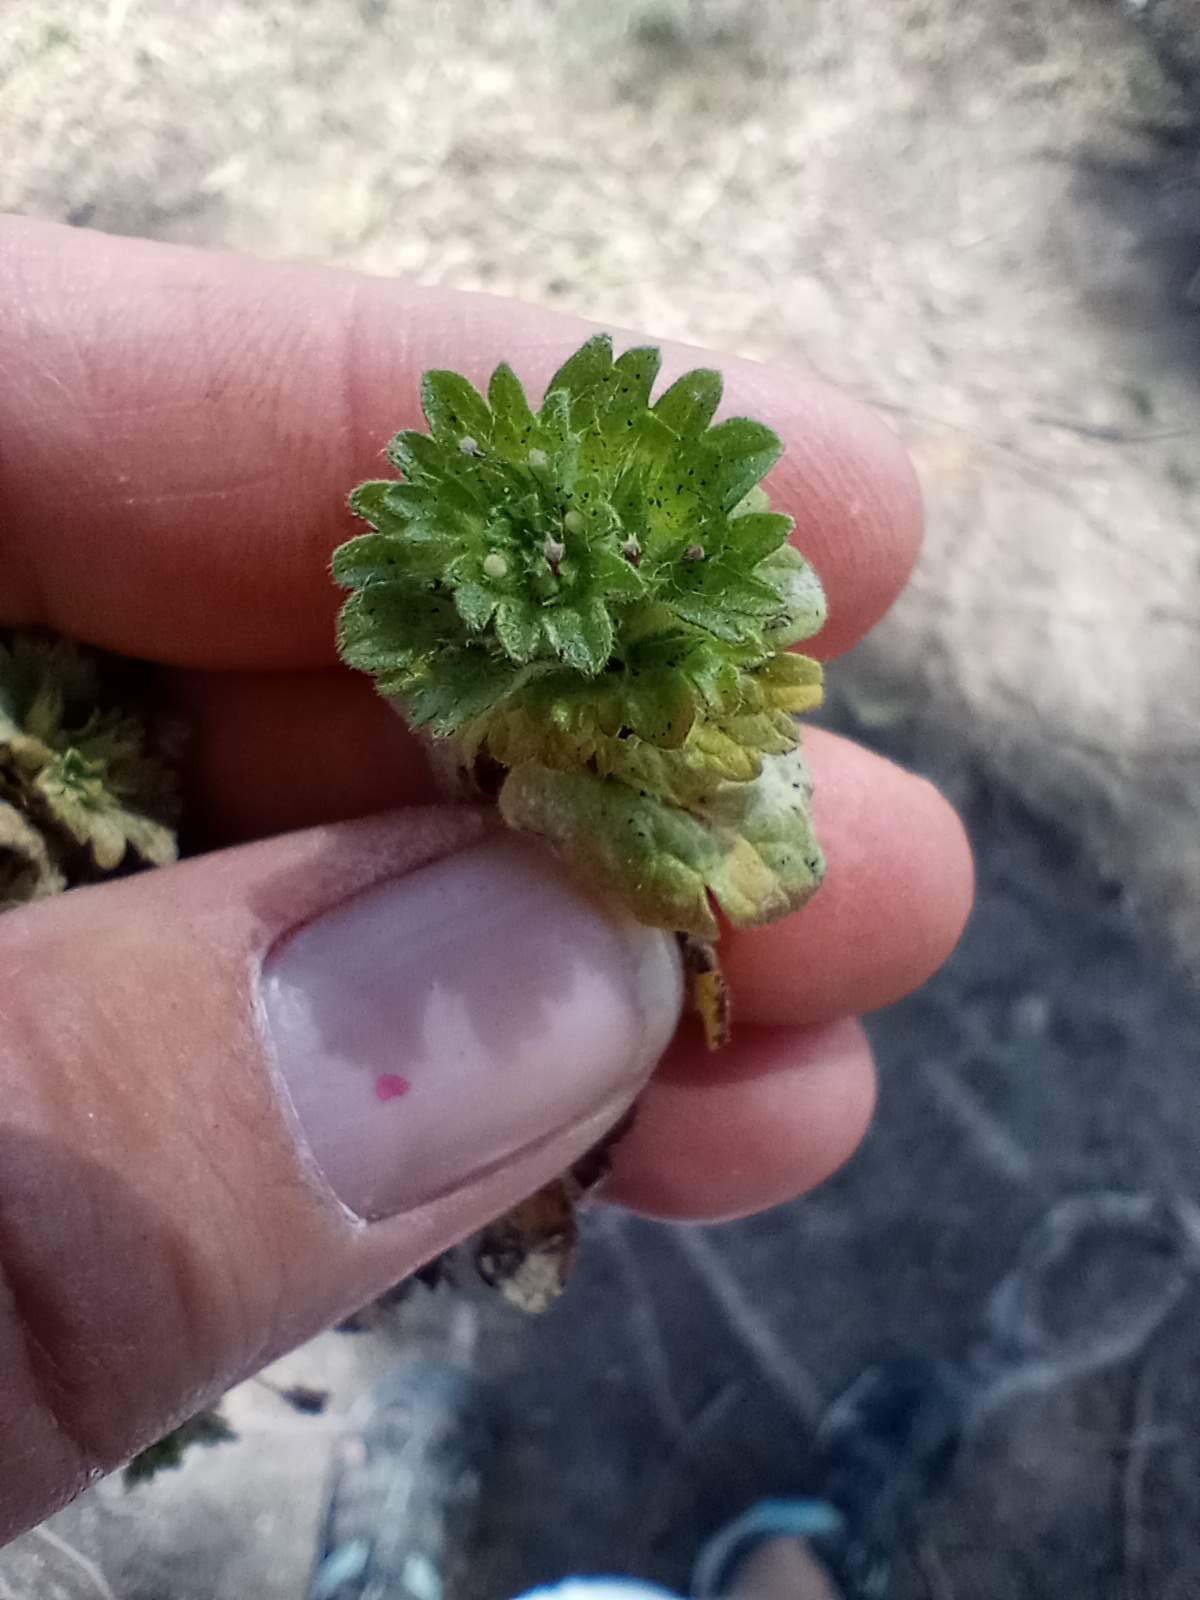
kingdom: Plantae
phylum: Tracheophyta
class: Magnoliopsida
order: Lamiales
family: Lamiaceae
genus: Lamium
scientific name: Lamium amplexicaule
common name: Henbit dead-nettle
